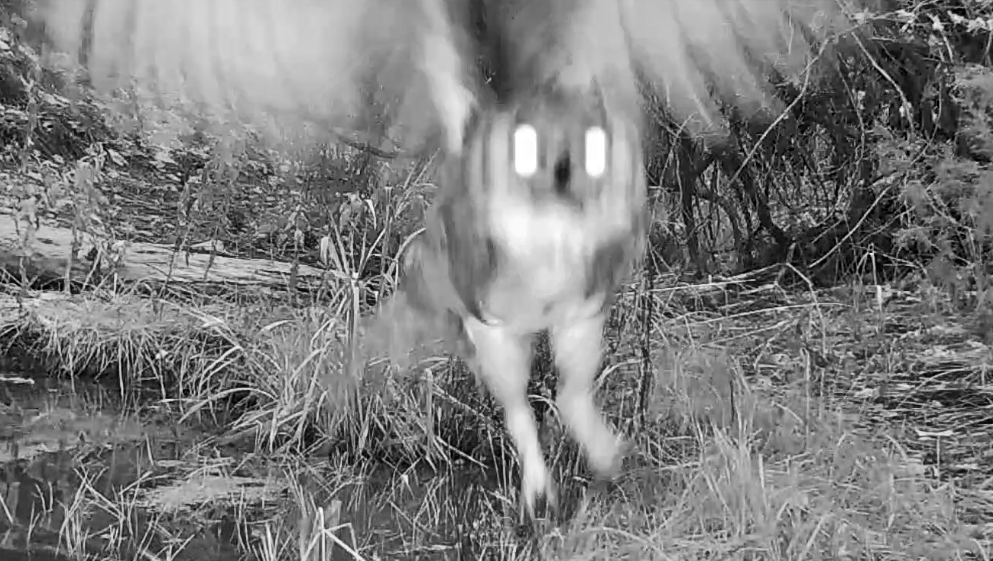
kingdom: Animalia
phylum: Chordata
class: Aves
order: Strigiformes
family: Strigidae
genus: Bubo
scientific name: Bubo virginianus
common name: Great horned owl
